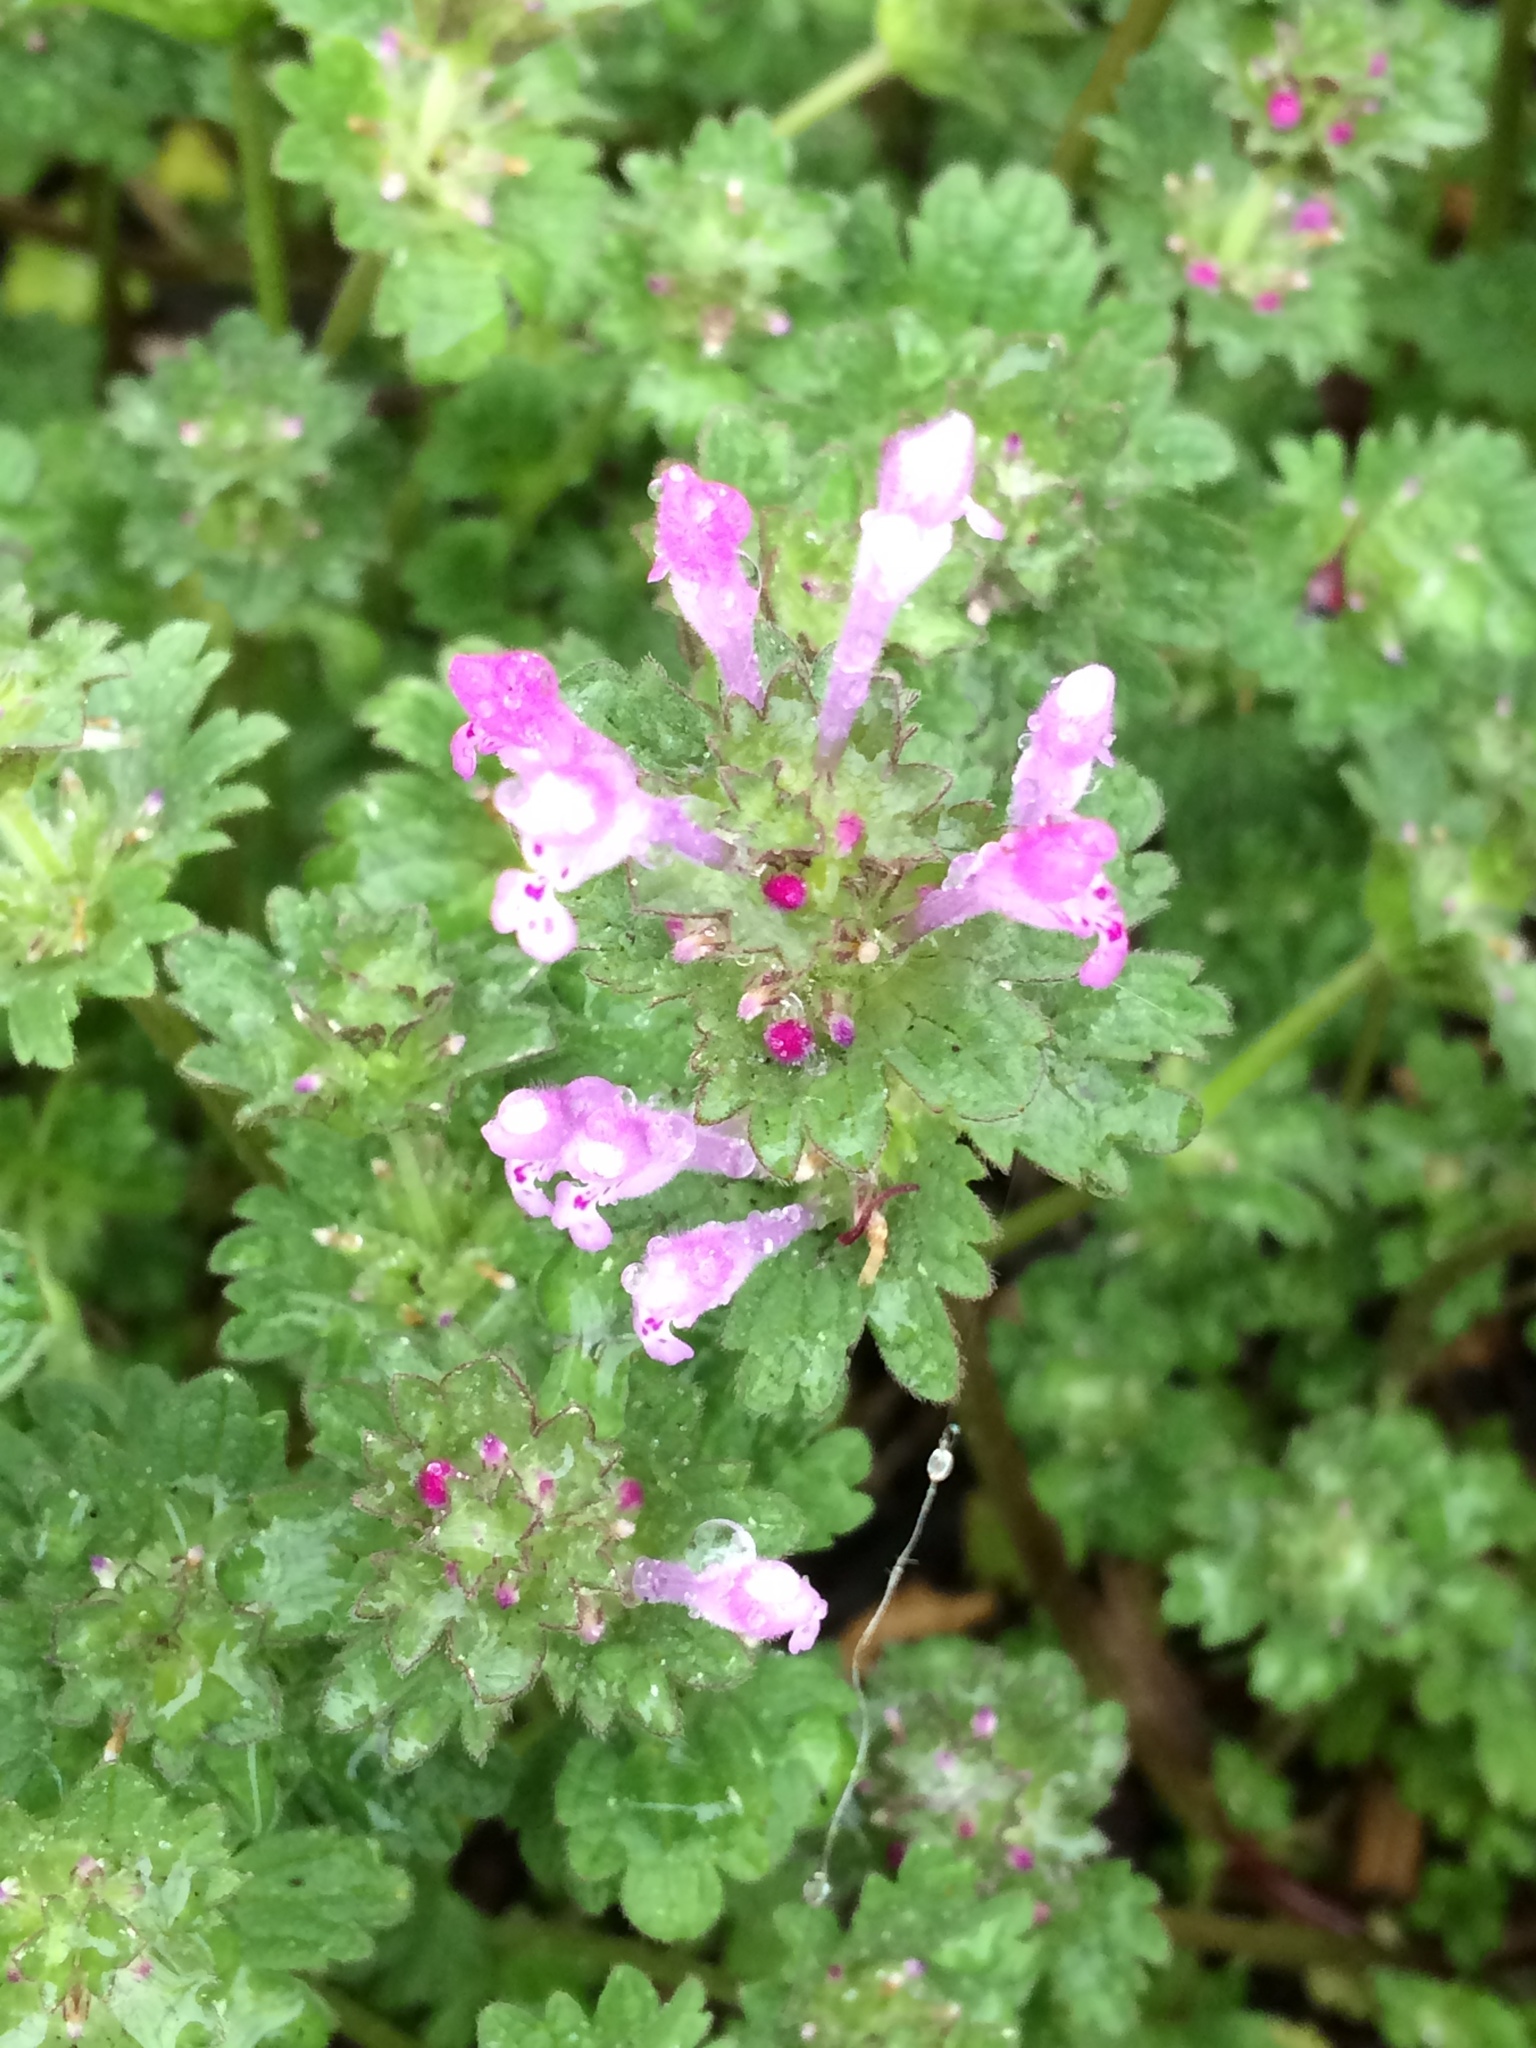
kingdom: Plantae
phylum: Tracheophyta
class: Magnoliopsida
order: Lamiales
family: Lamiaceae
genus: Lamium
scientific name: Lamium amplexicaule
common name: Henbit dead-nettle
